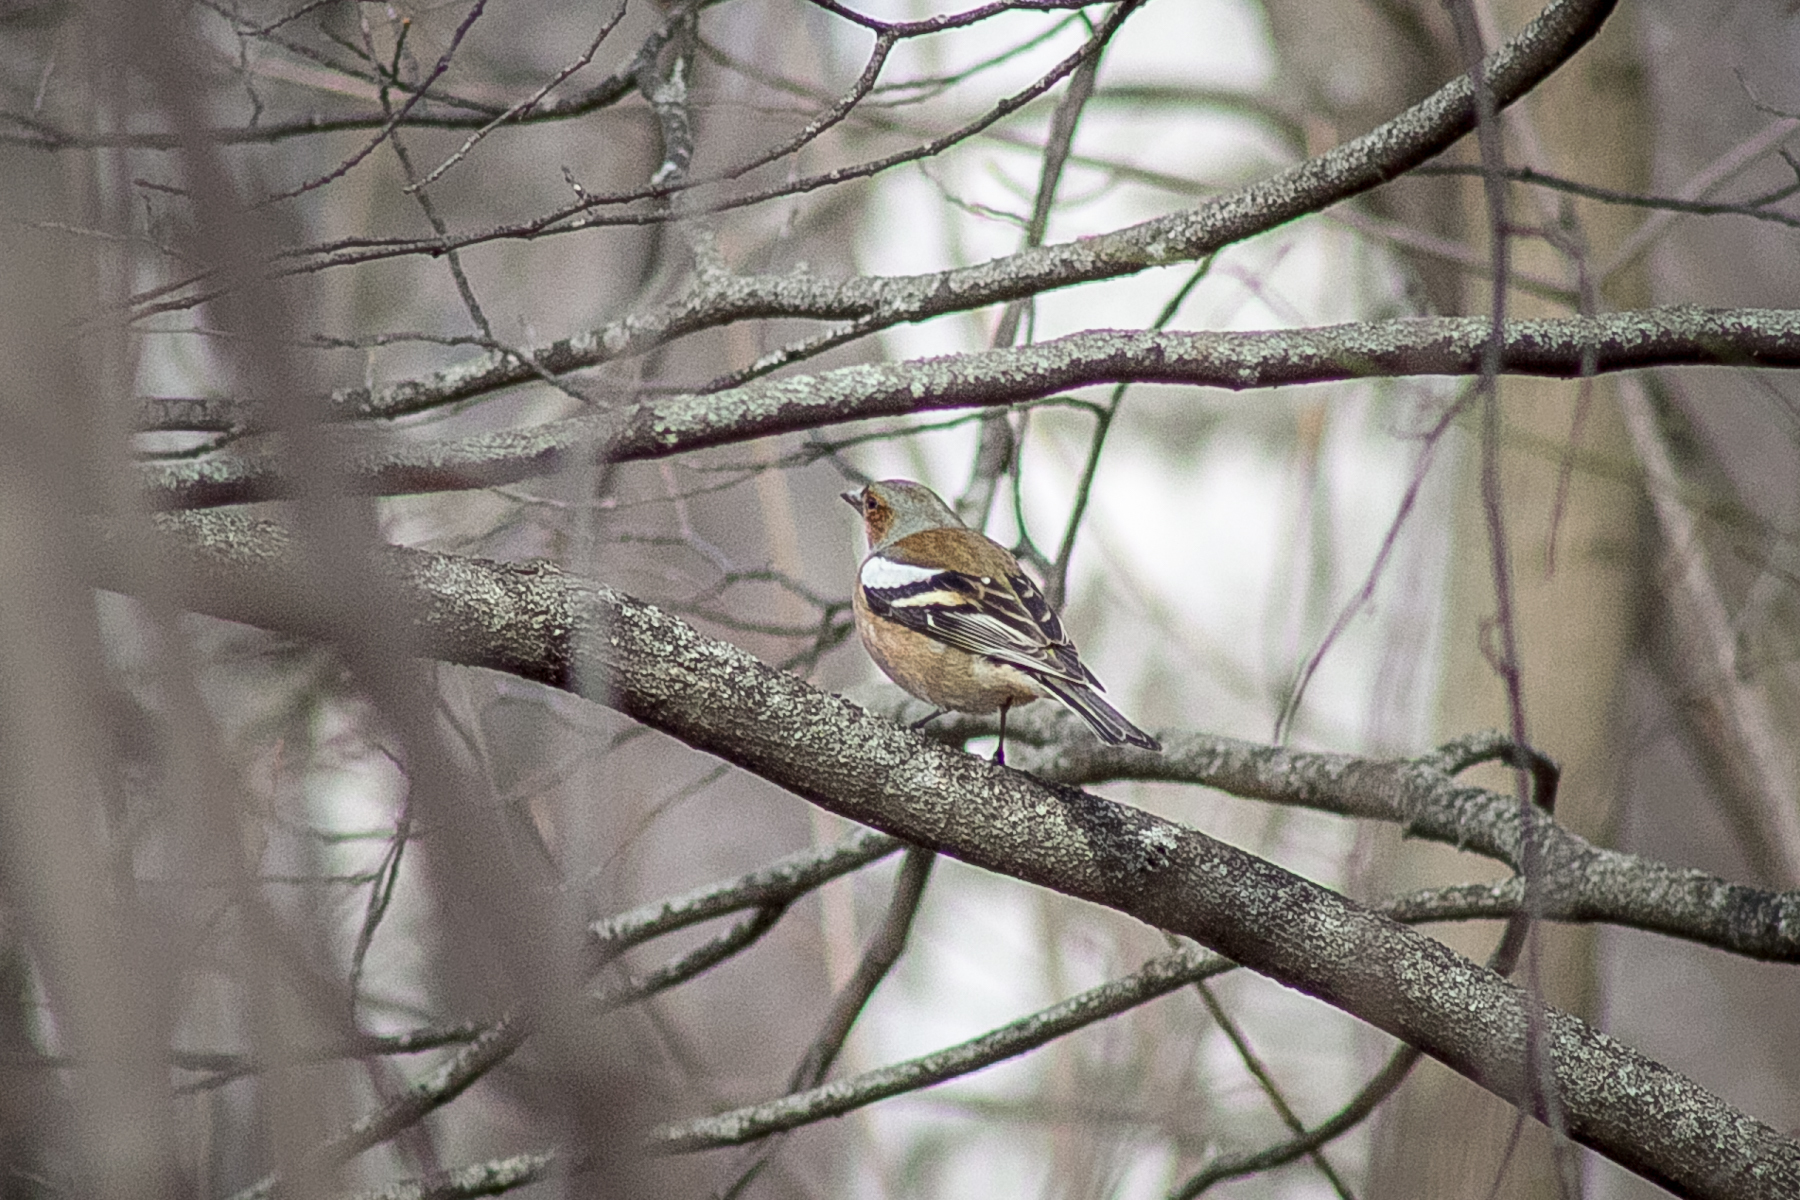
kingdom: Animalia
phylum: Chordata
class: Aves
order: Passeriformes
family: Fringillidae
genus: Fringilla
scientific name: Fringilla coelebs
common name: Common chaffinch
